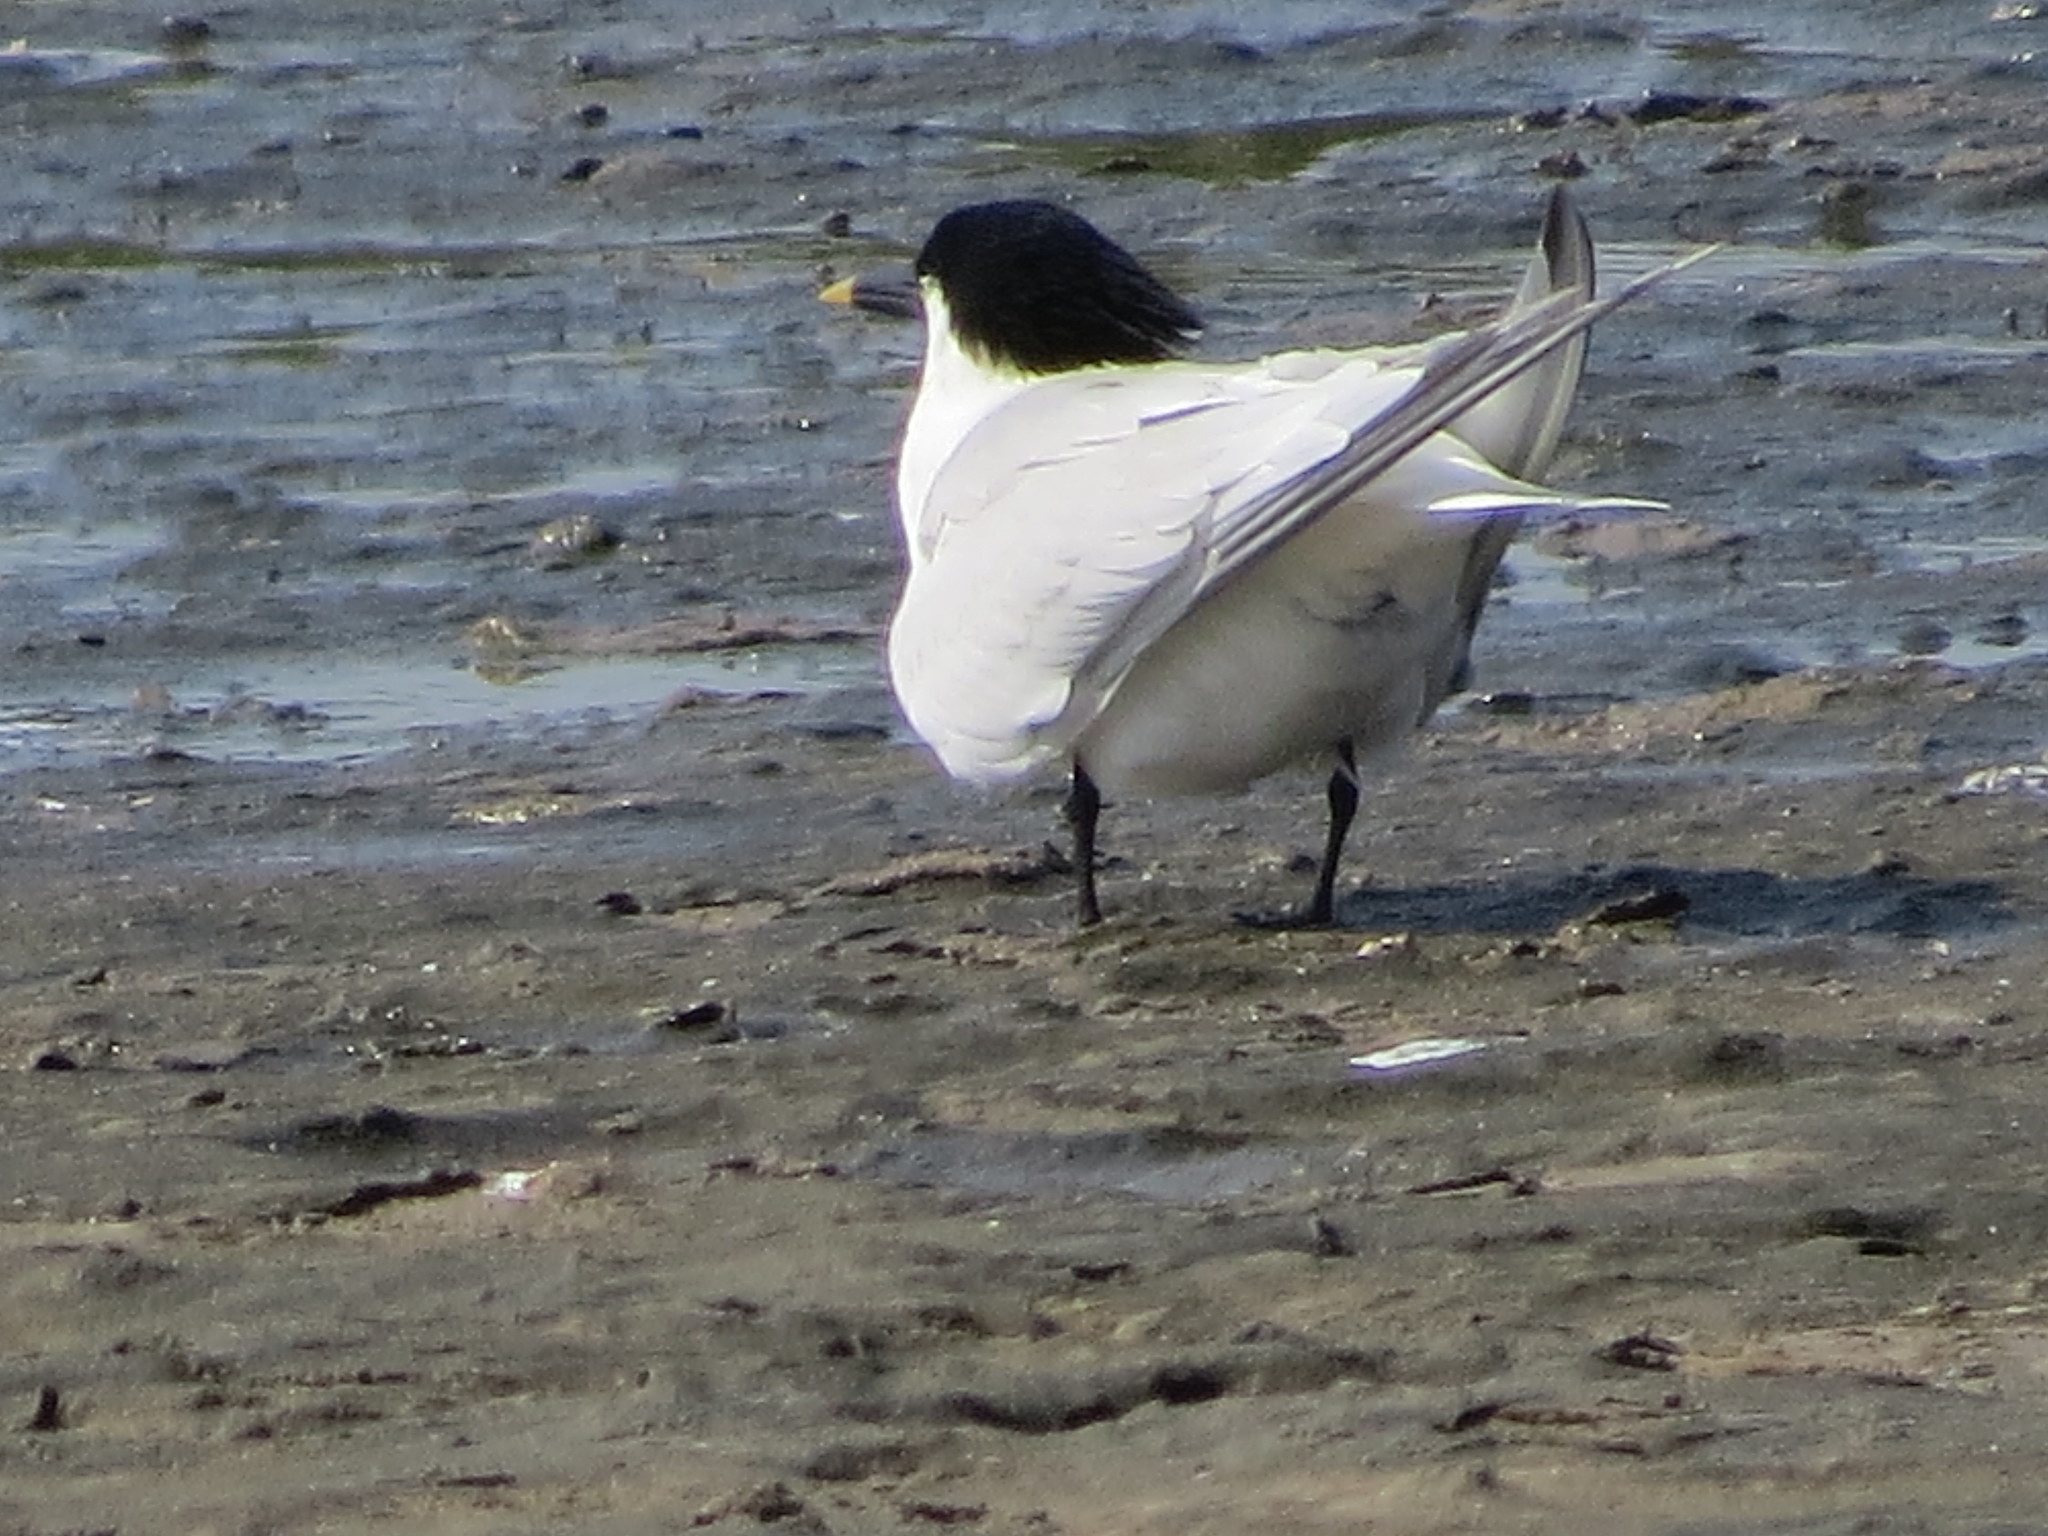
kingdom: Animalia
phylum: Chordata
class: Aves
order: Charadriiformes
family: Laridae
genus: Thalasseus
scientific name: Thalasseus sandvicensis
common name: Sandwich tern
